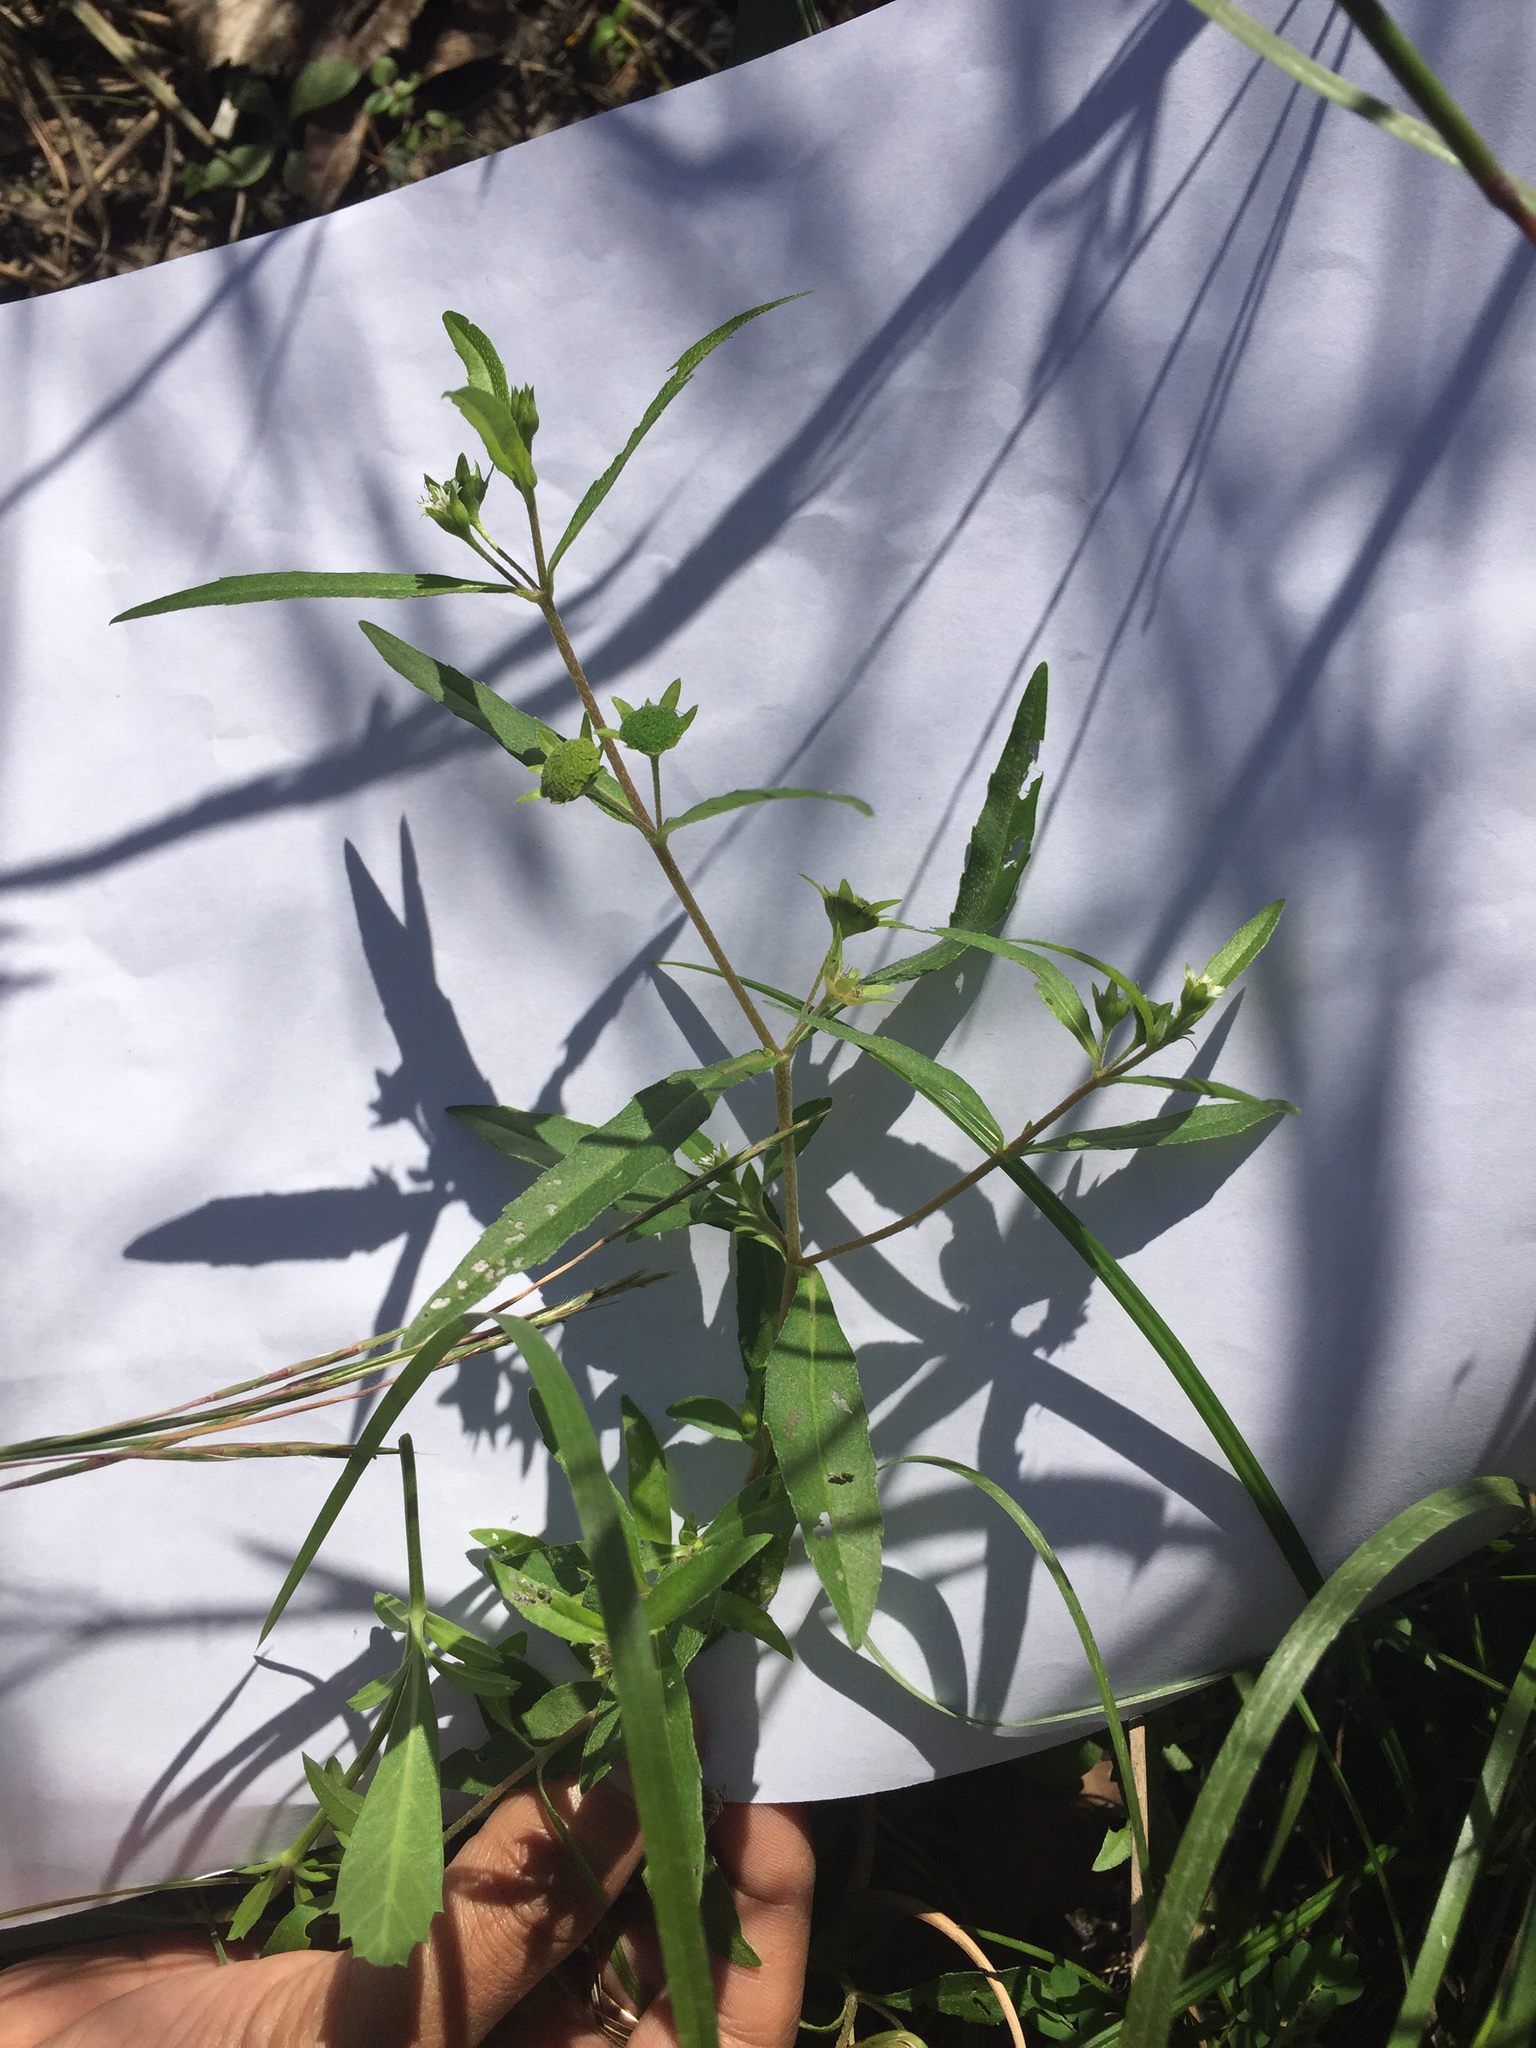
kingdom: Plantae
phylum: Tracheophyta
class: Magnoliopsida
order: Asterales
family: Asteraceae
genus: Eclipta
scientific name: Eclipta prostrata
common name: False daisy
